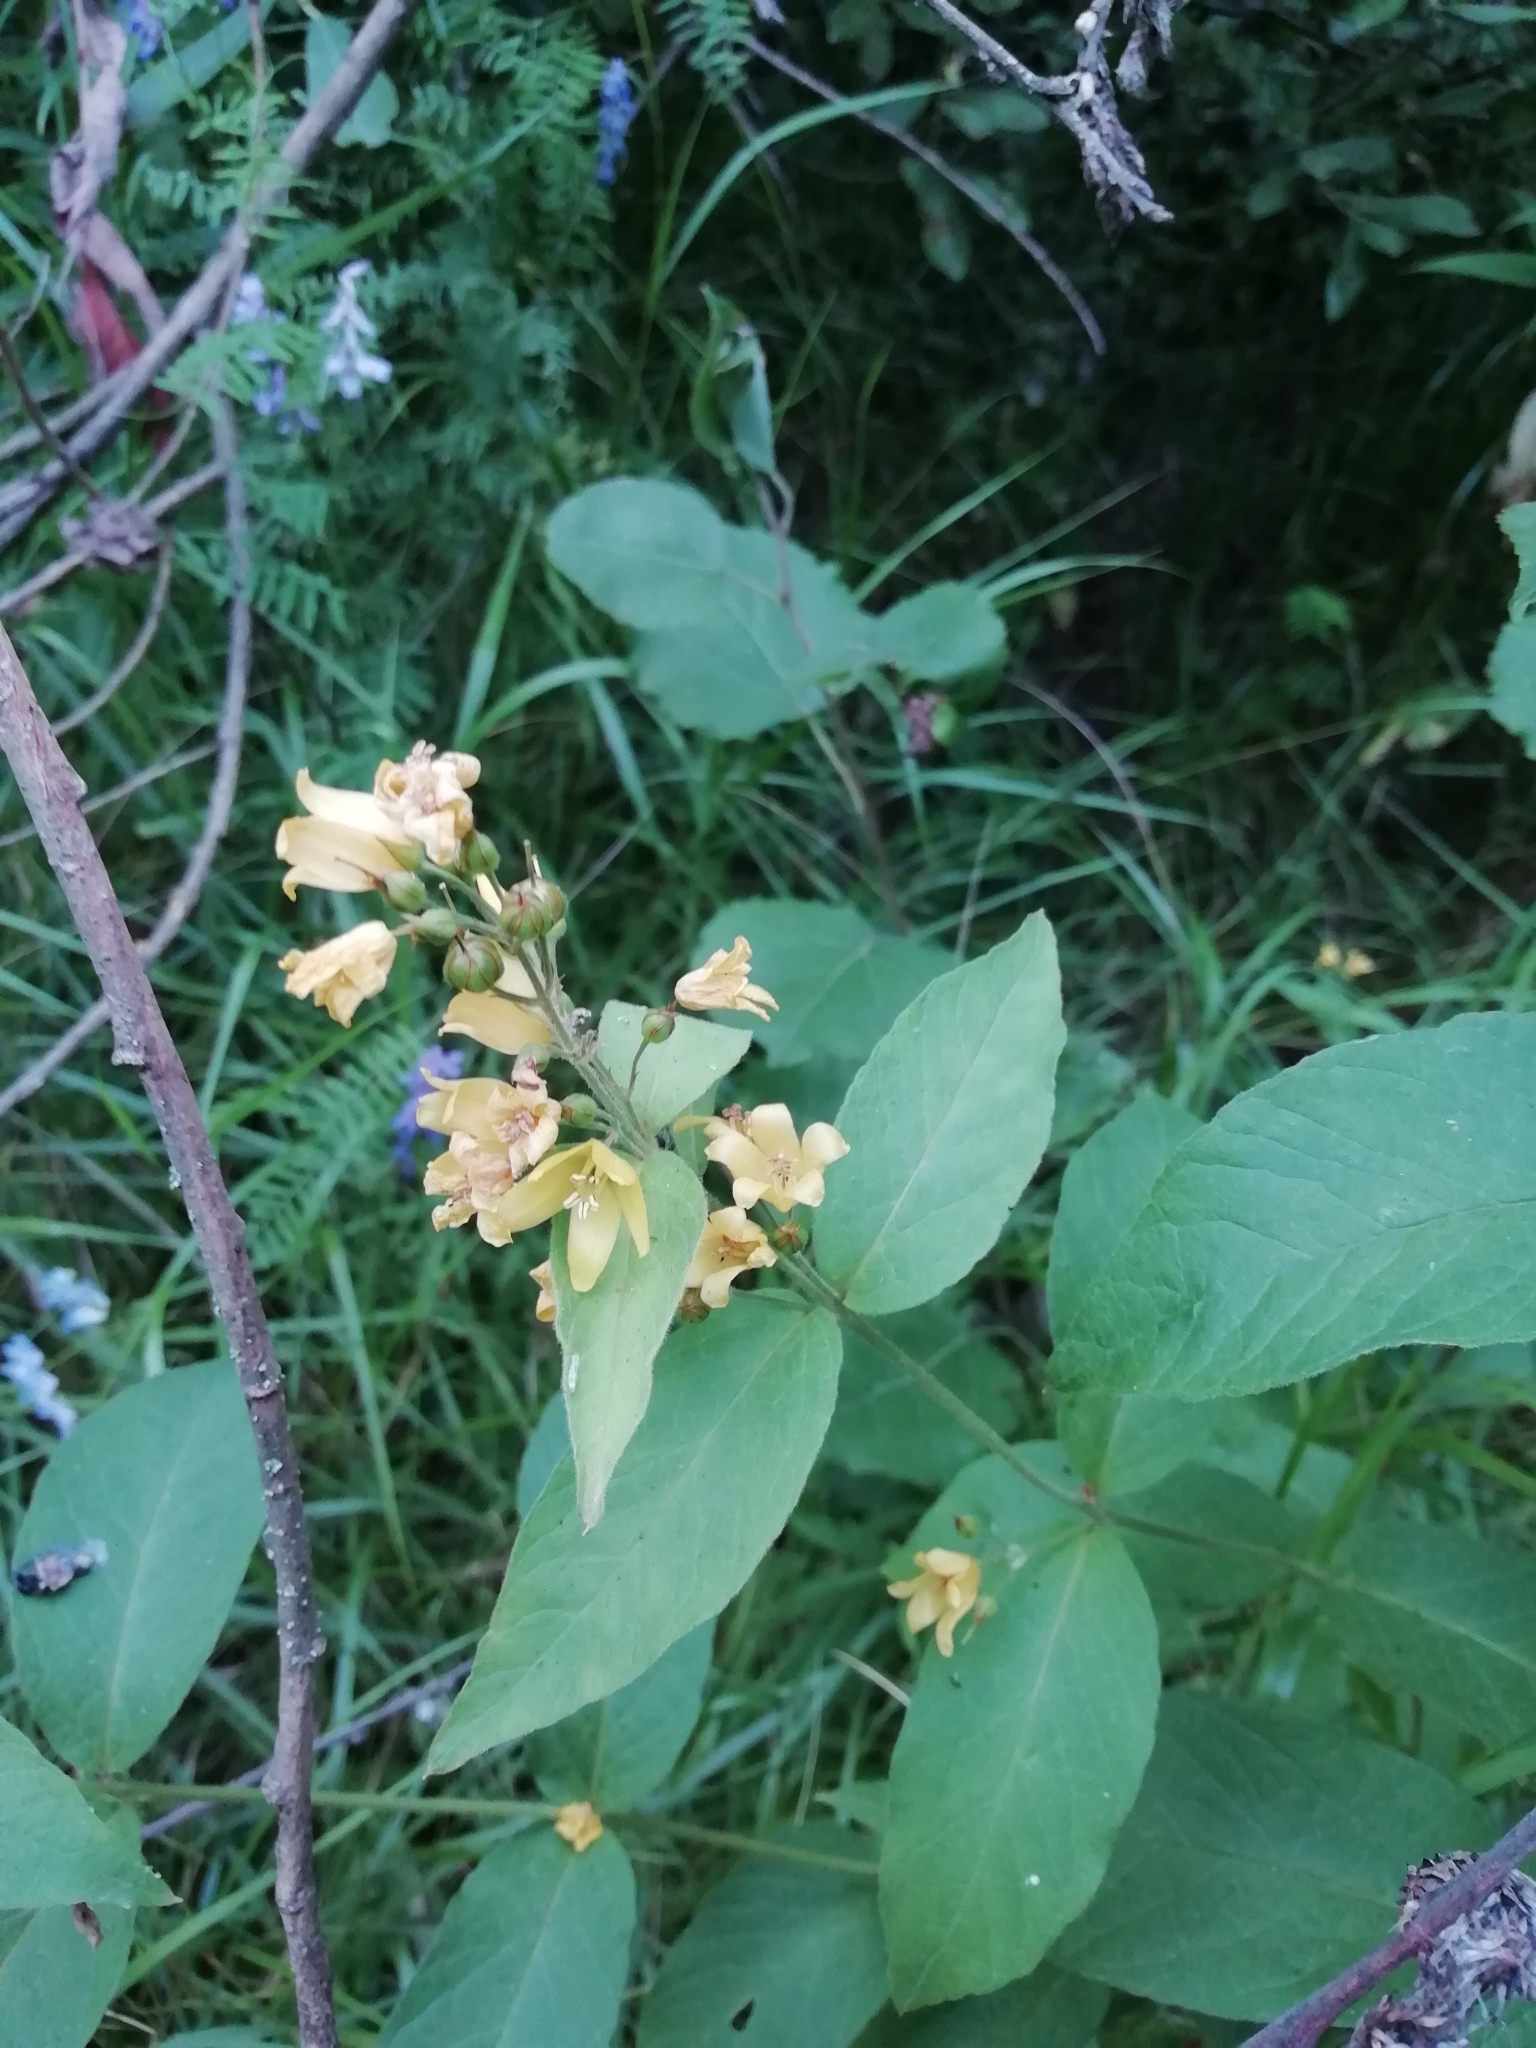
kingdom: Plantae
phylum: Tracheophyta
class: Magnoliopsida
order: Ericales
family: Primulaceae
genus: Lysimachia
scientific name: Lysimachia vulgaris
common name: Yellow loosestrife
